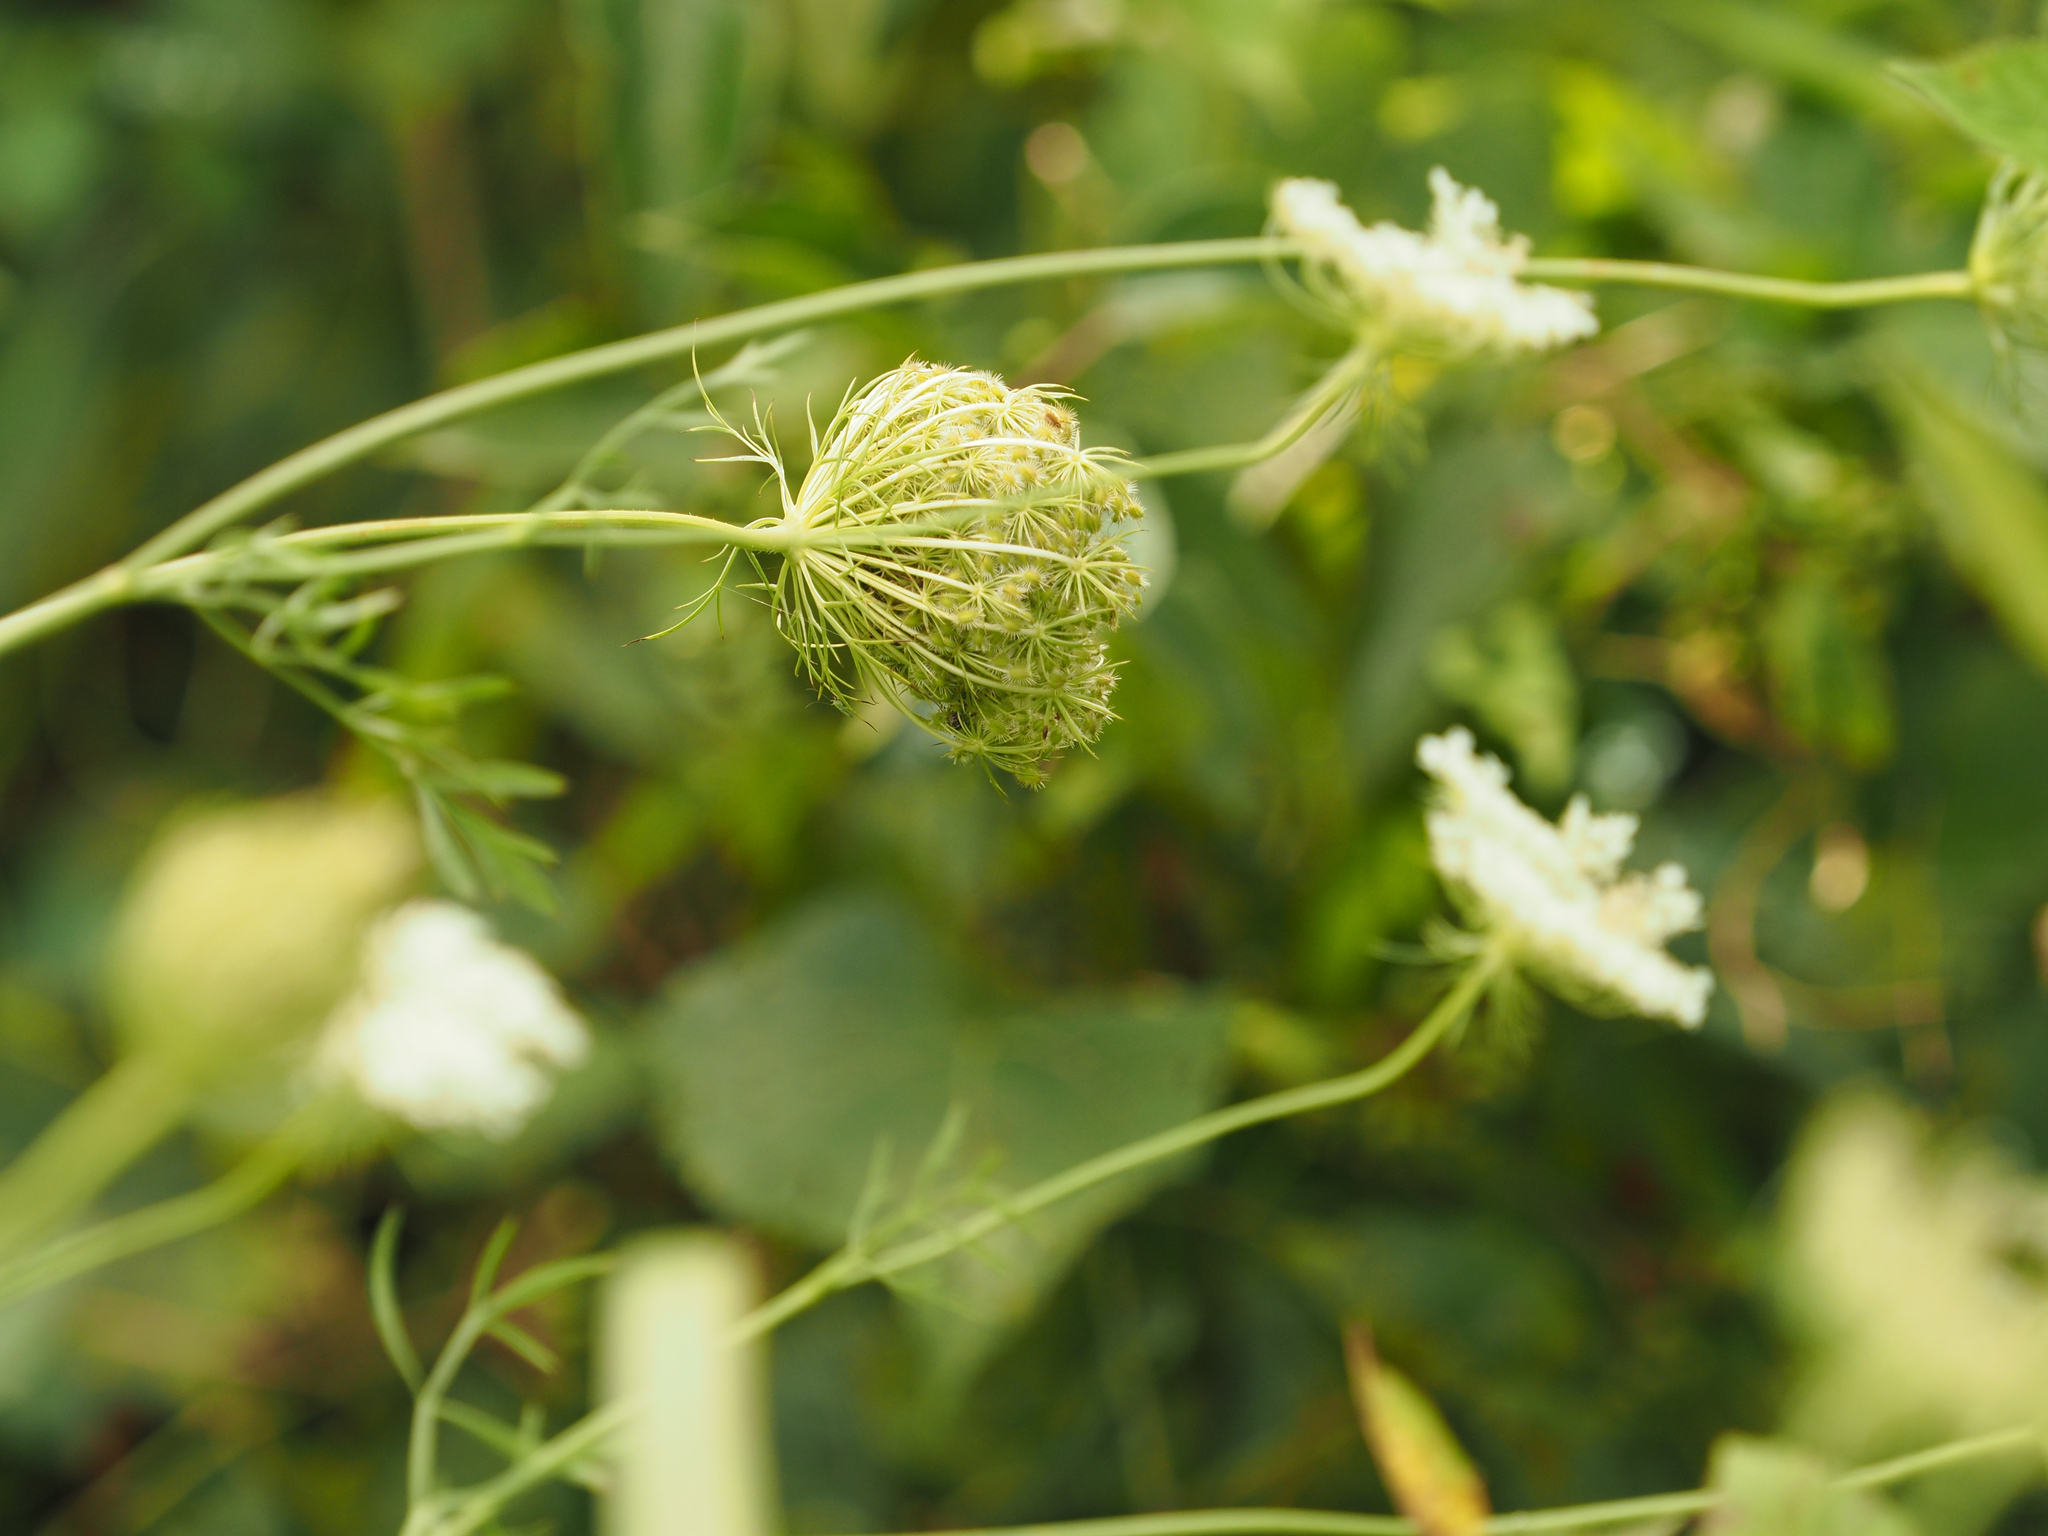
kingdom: Plantae
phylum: Tracheophyta
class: Magnoliopsida
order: Apiales
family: Apiaceae
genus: Daucus
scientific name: Daucus carota
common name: Wild carrot
